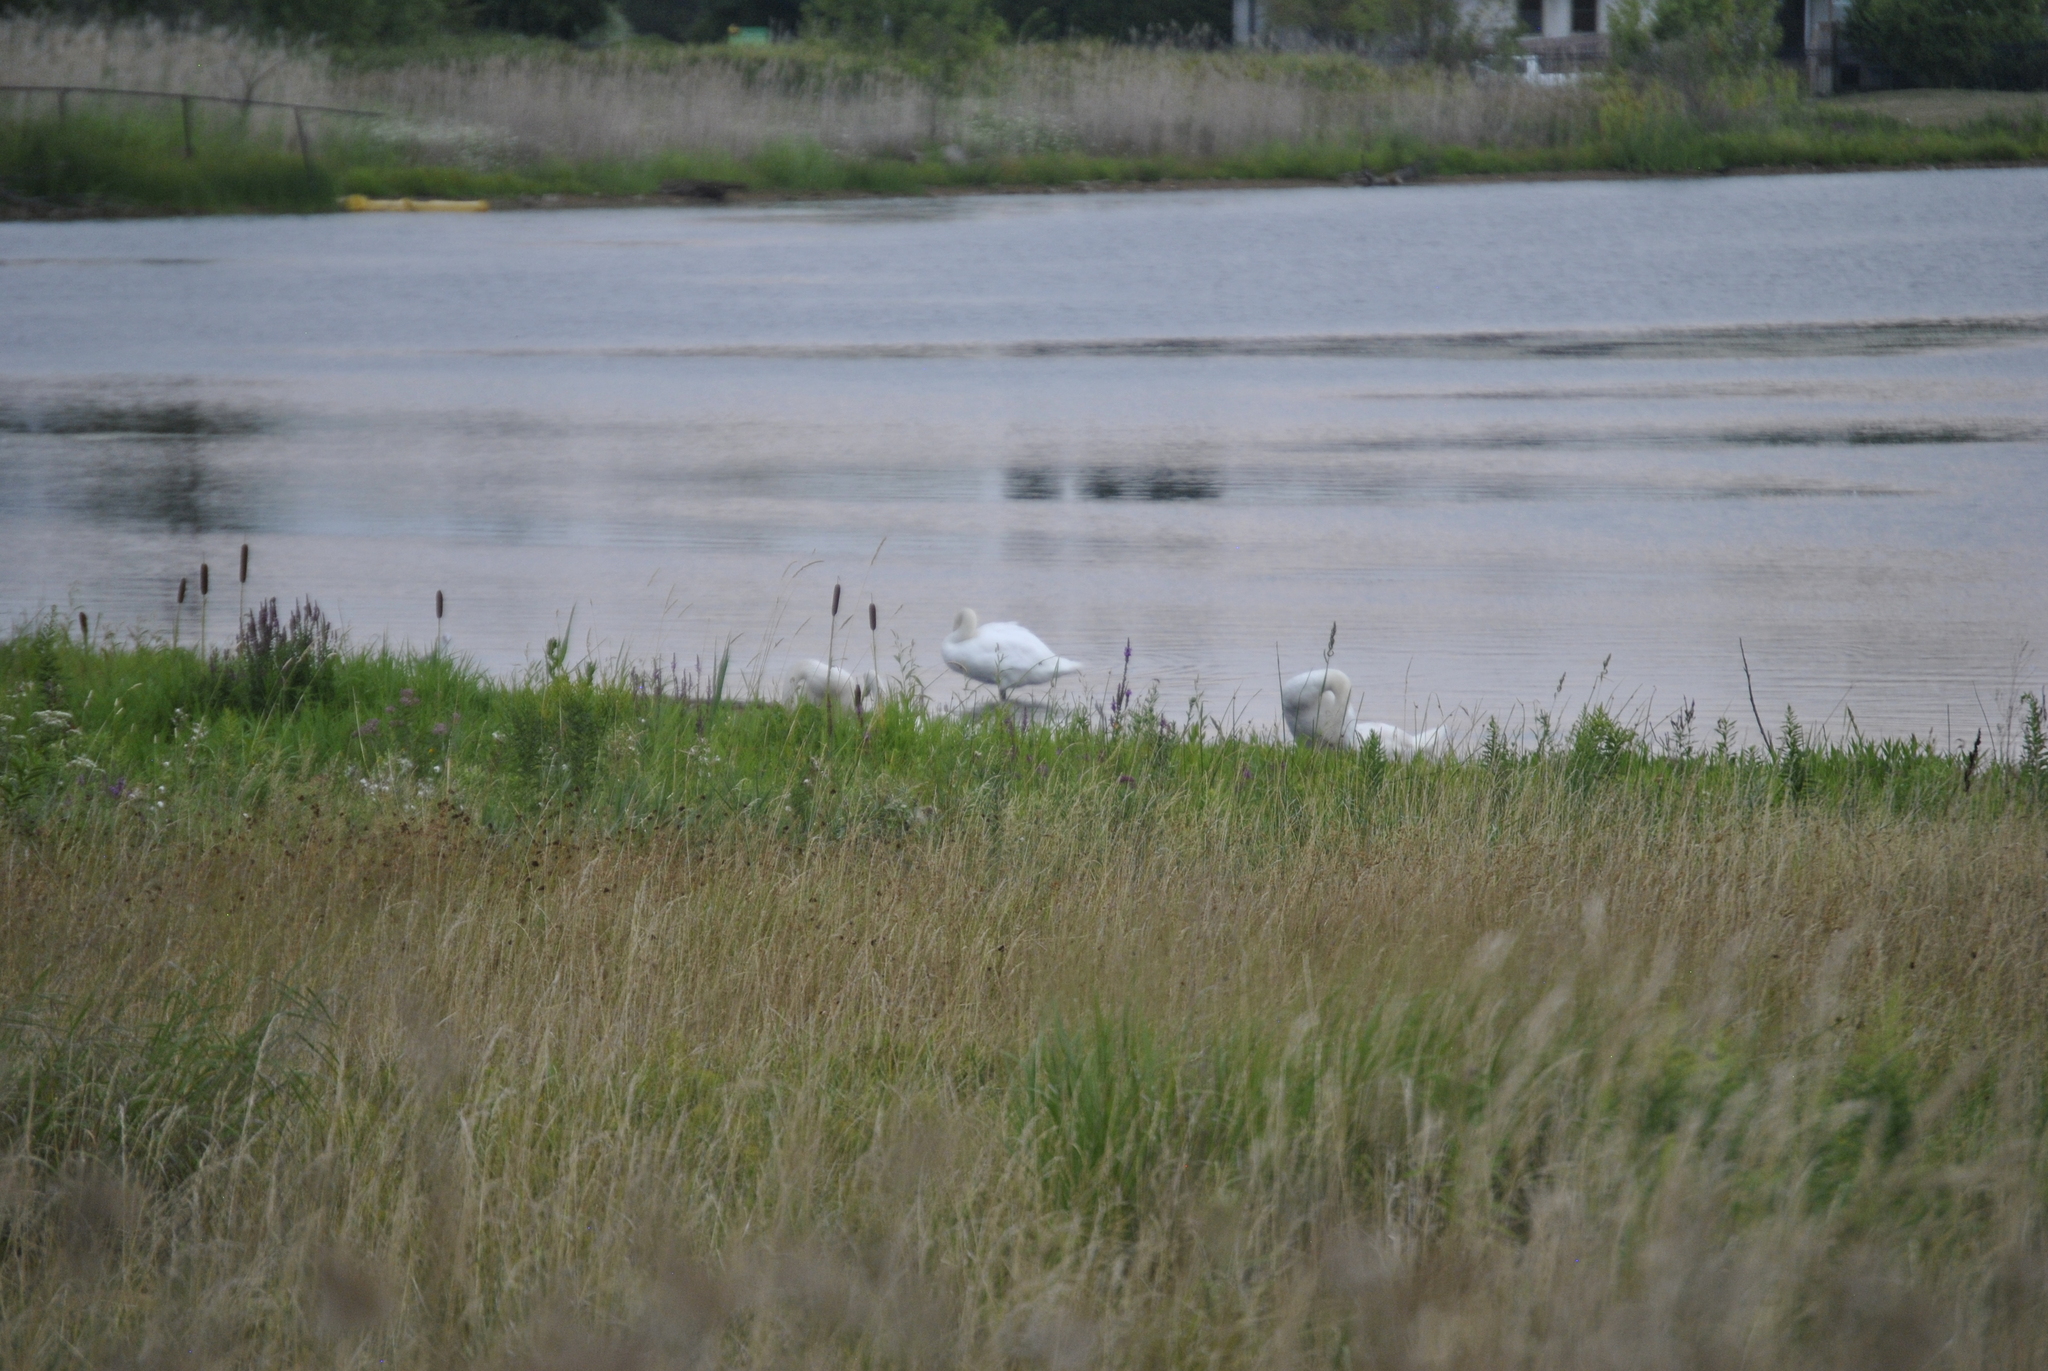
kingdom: Animalia
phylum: Chordata
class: Aves
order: Anseriformes
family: Anatidae
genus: Cygnus
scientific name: Cygnus olor
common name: Mute swan
